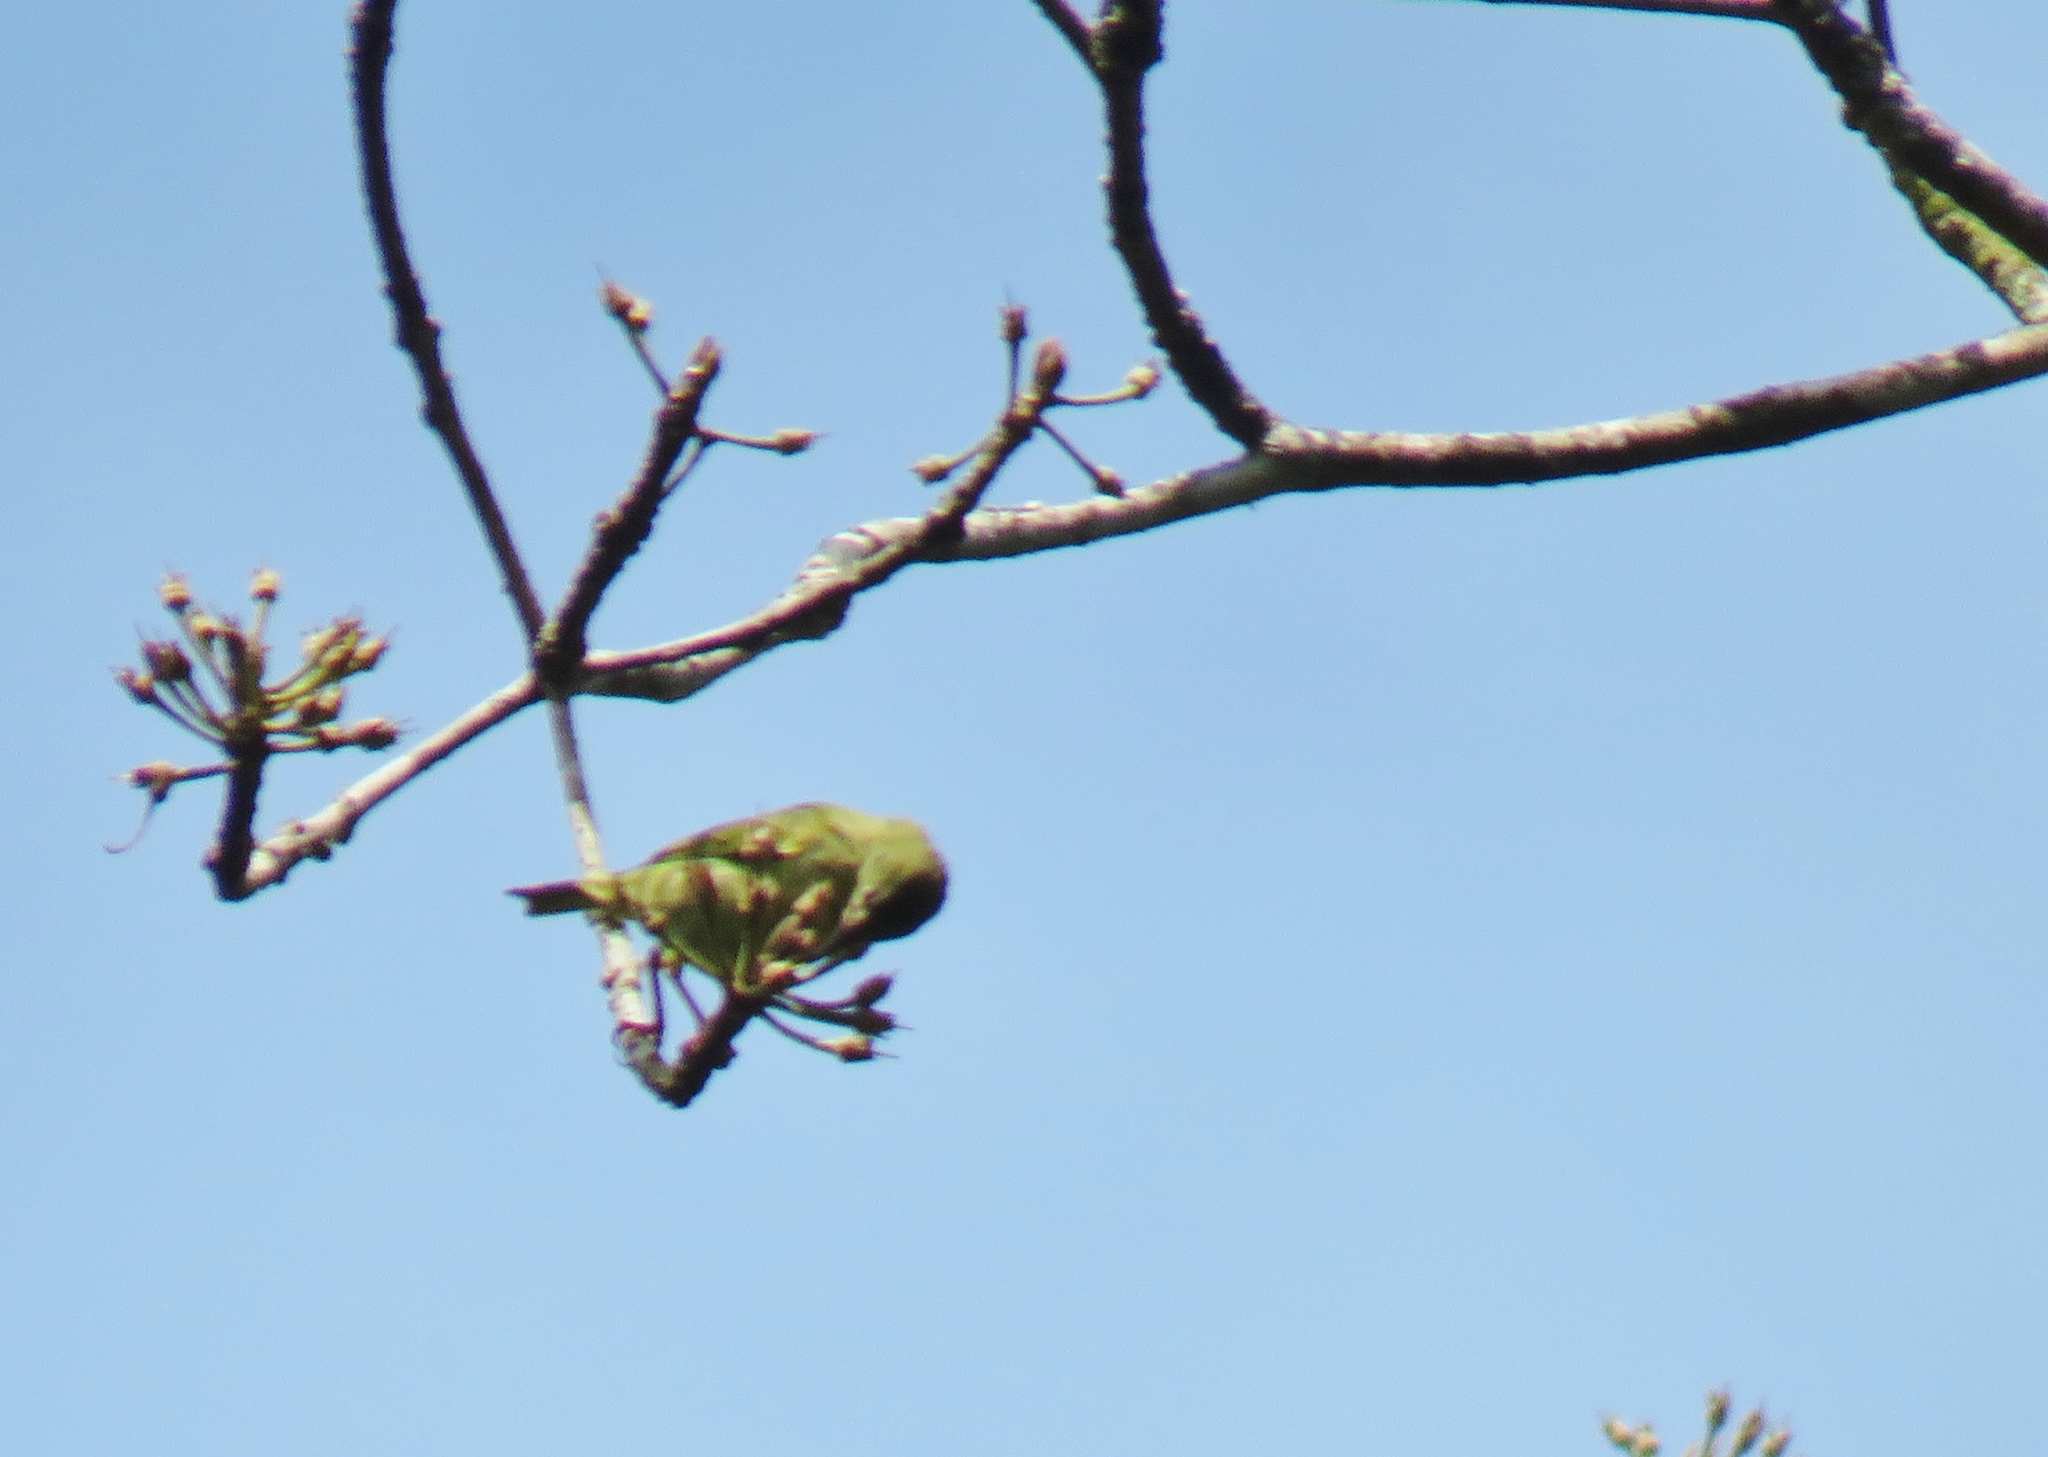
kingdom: Animalia
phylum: Chordata
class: Aves
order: Passeriformes
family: Thraupidae
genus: Cyanerpes
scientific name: Cyanerpes cyaneus
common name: Red-legged honeycreeper
